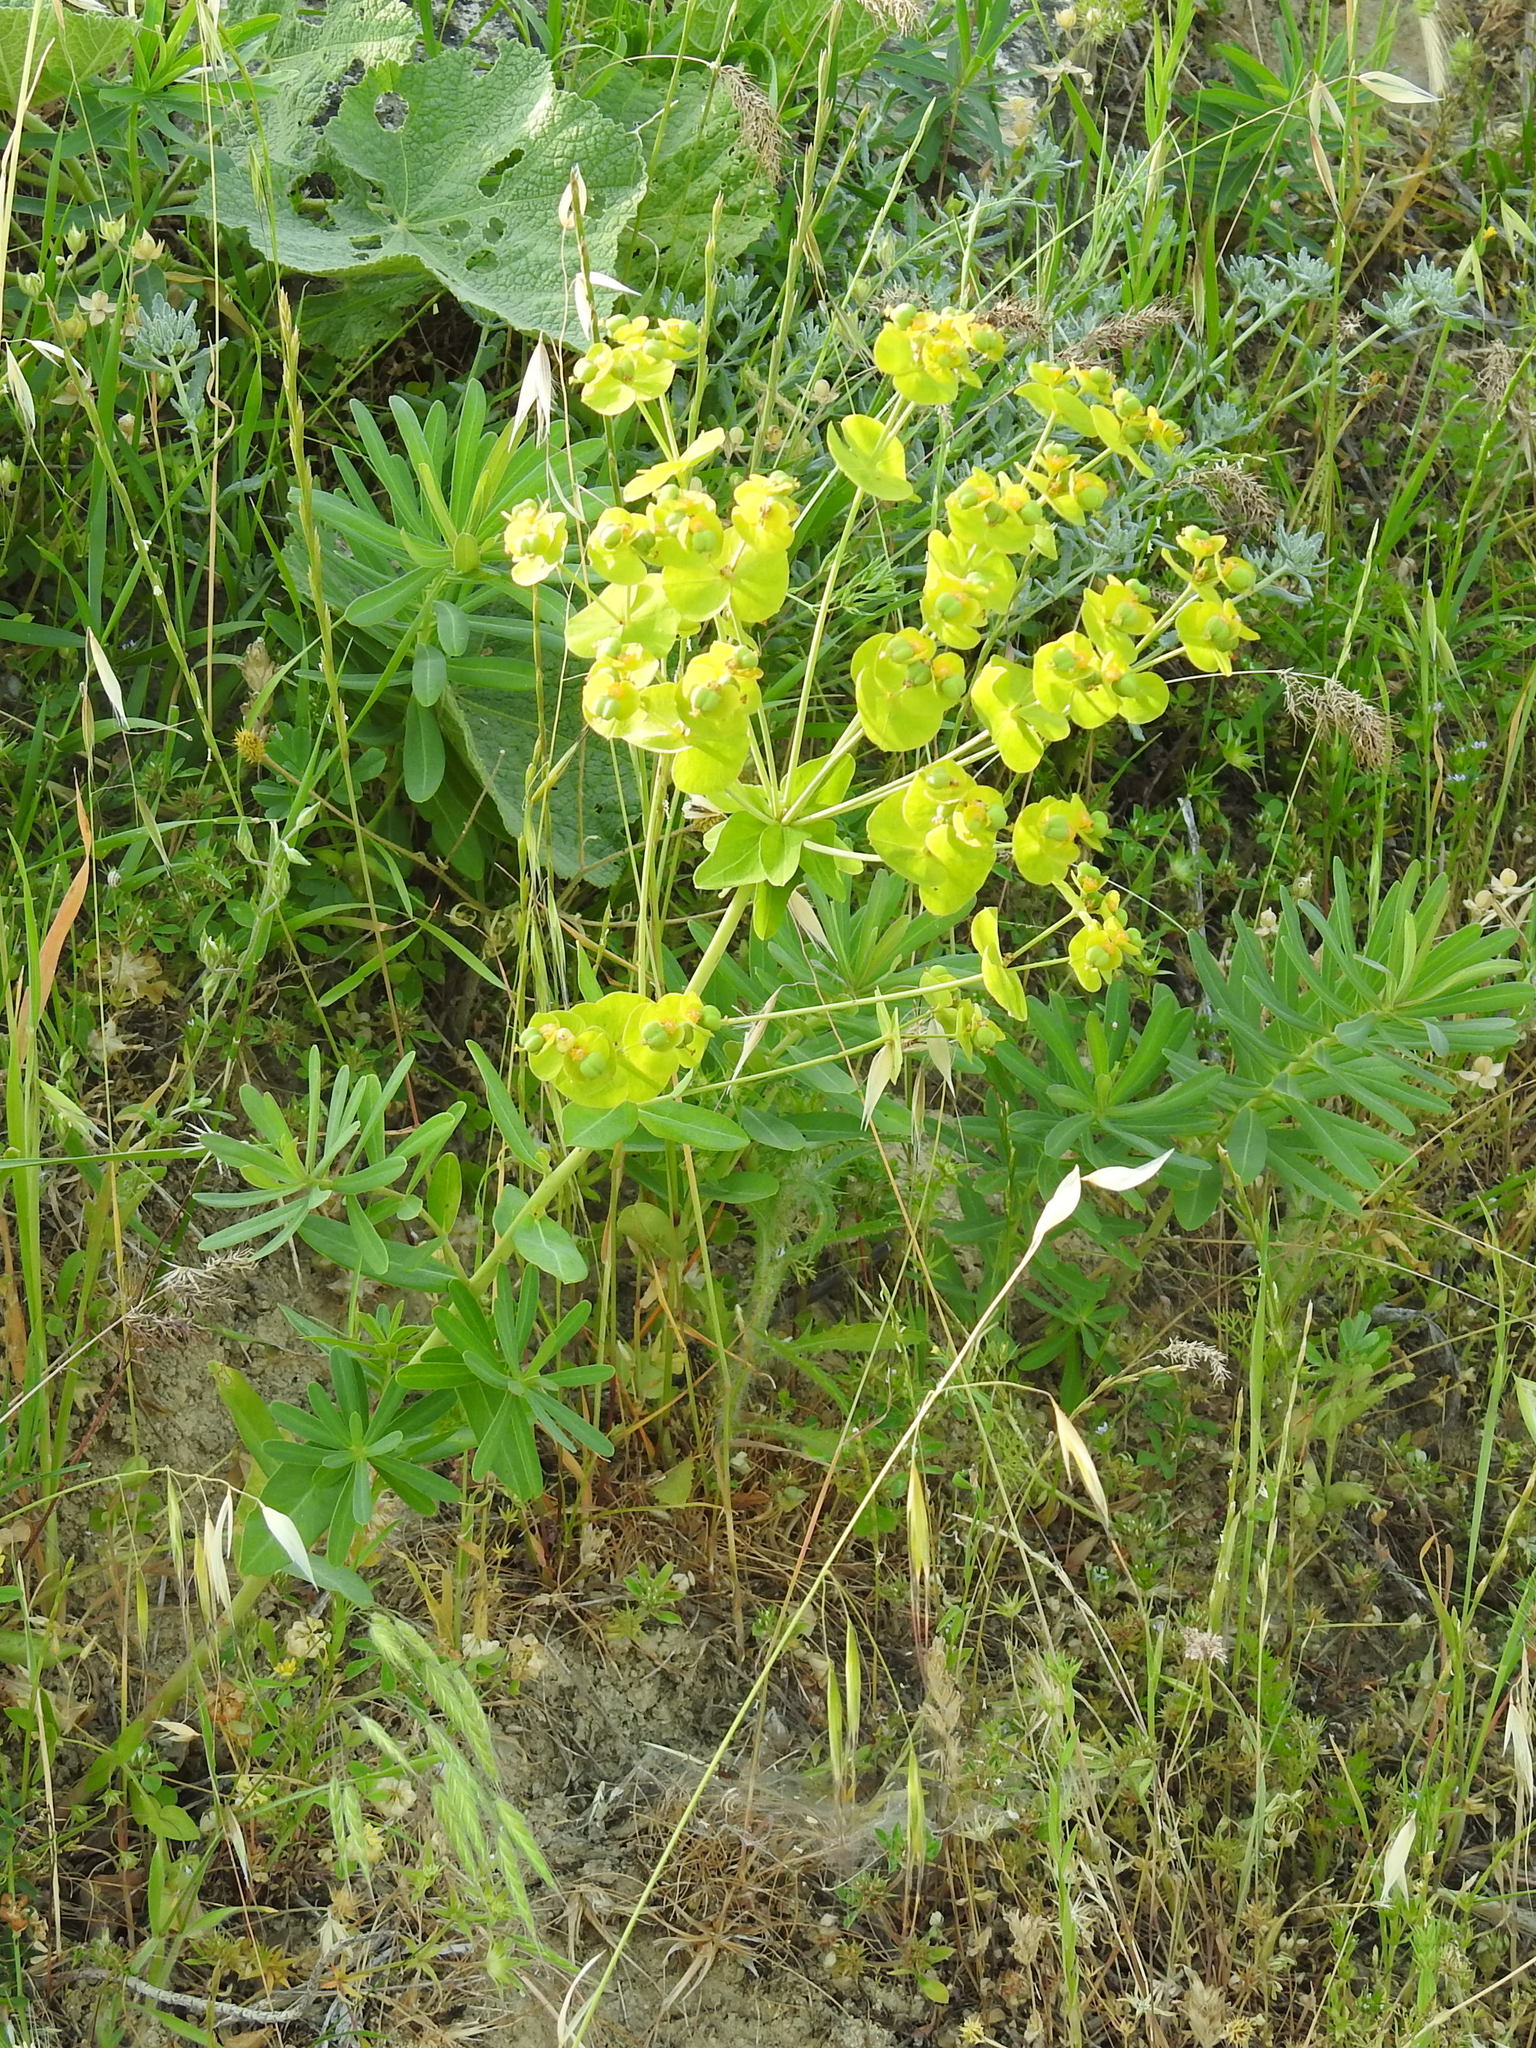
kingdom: Plantae
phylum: Tracheophyta
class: Magnoliopsida
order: Malpighiales
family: Euphorbiaceae
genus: Euphorbia
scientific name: Euphorbia iberica
